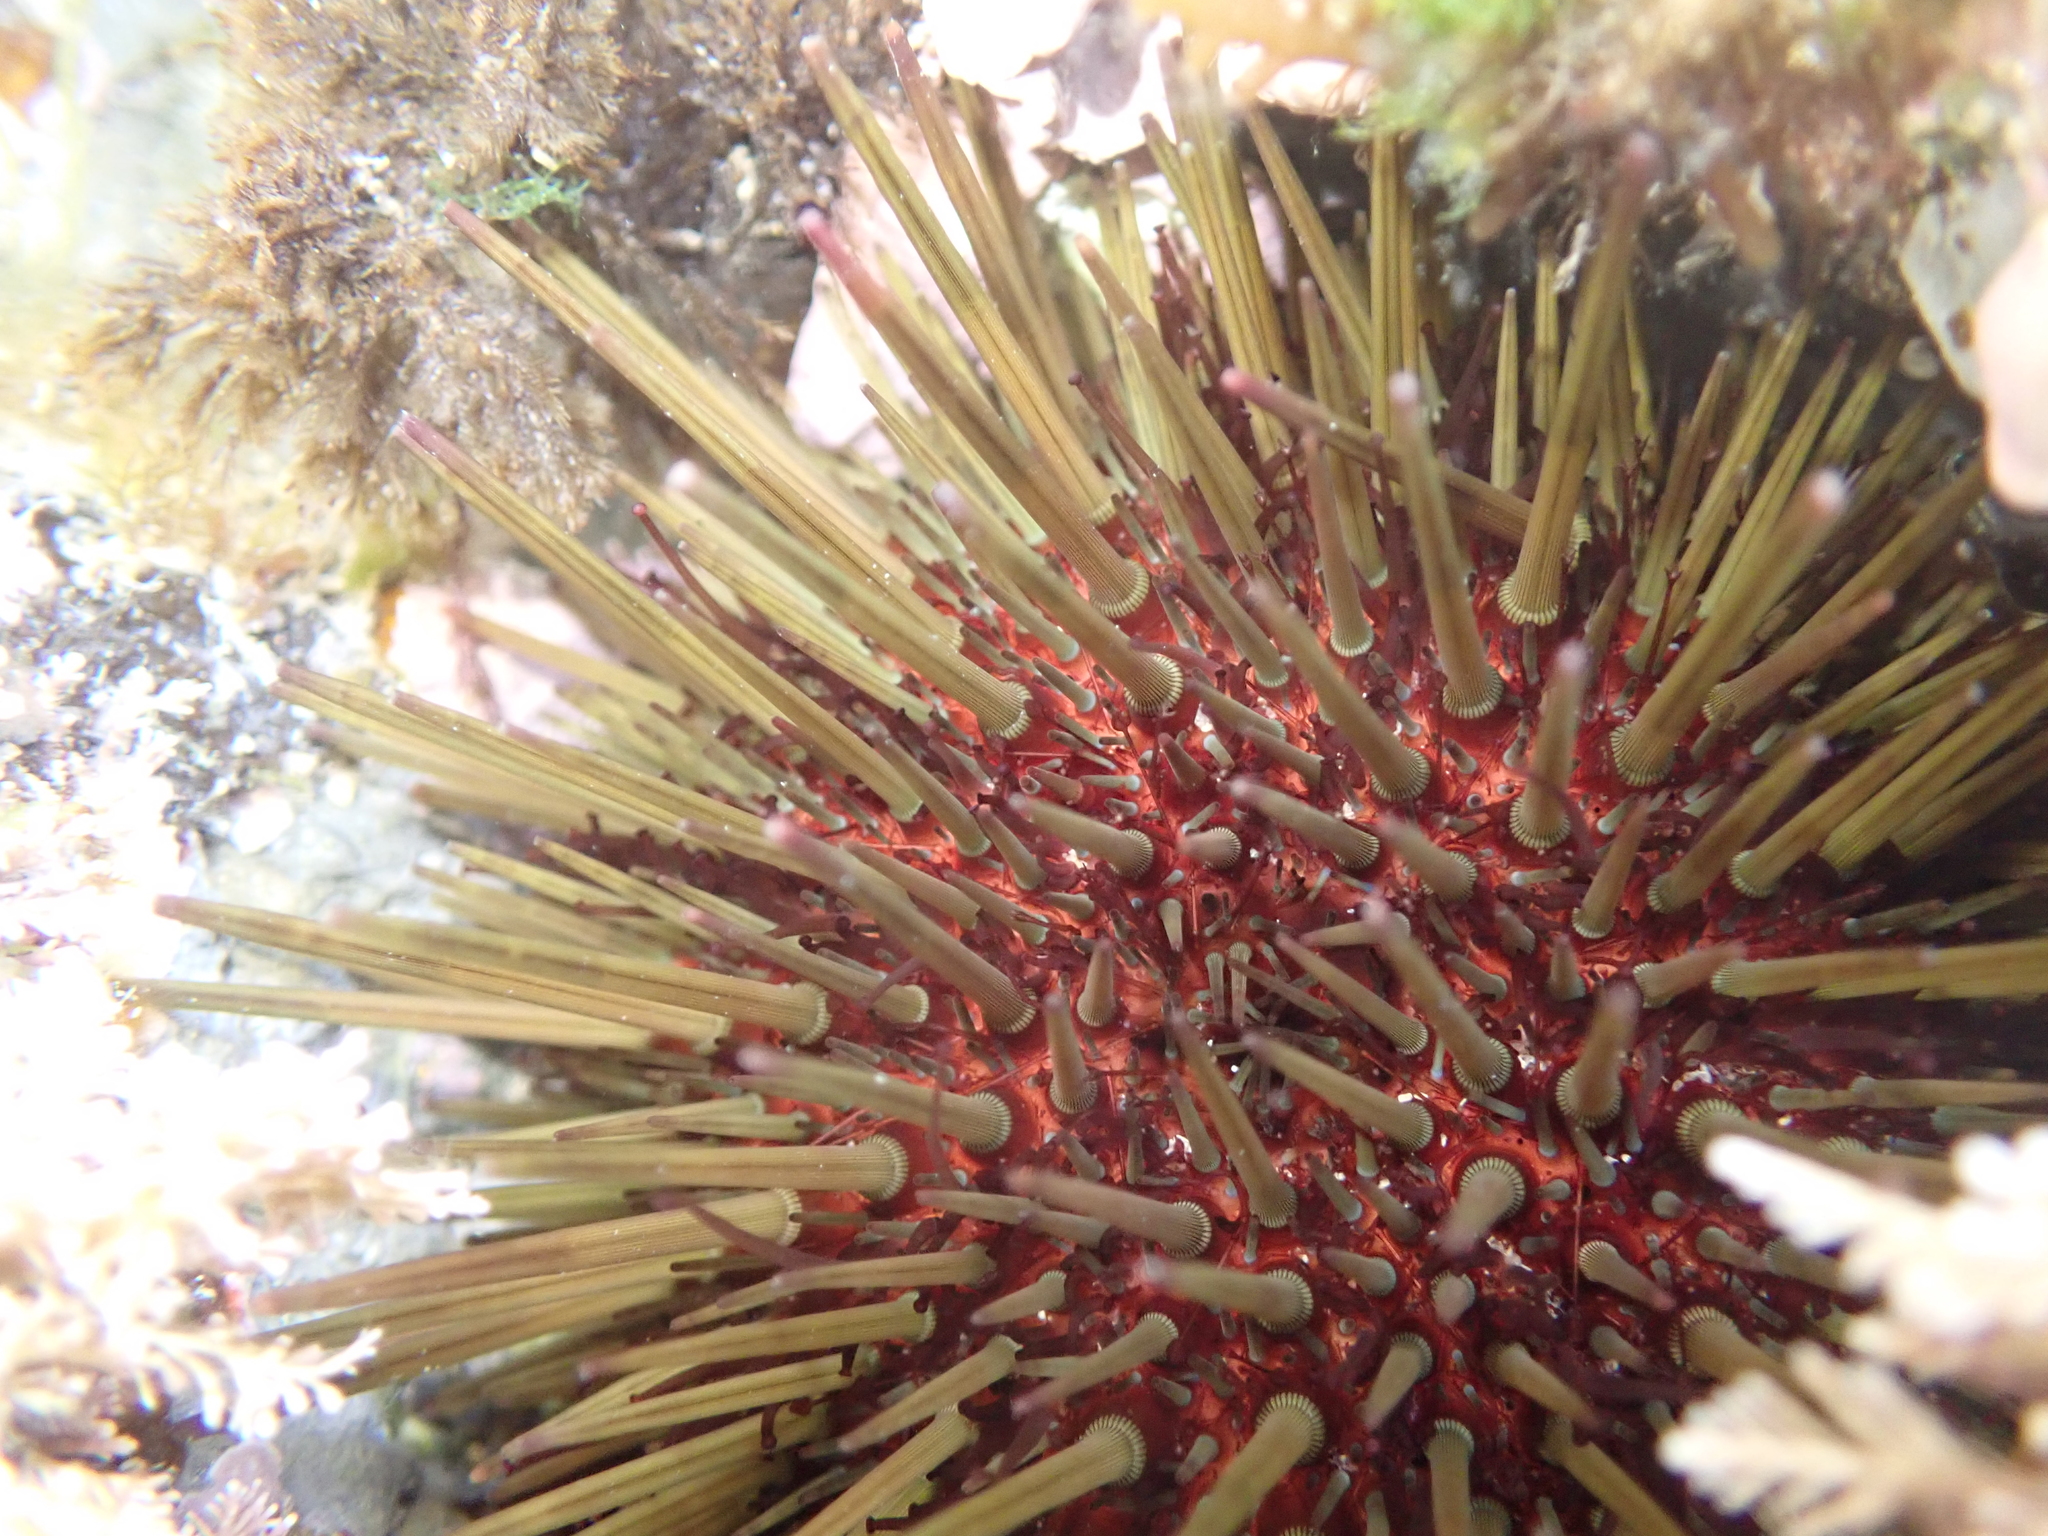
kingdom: Animalia
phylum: Echinodermata
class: Echinoidea
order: Camarodonta
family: Parechinidae
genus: Paracentrotus
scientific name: Paracentrotus lividus
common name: Purple sea urchin
